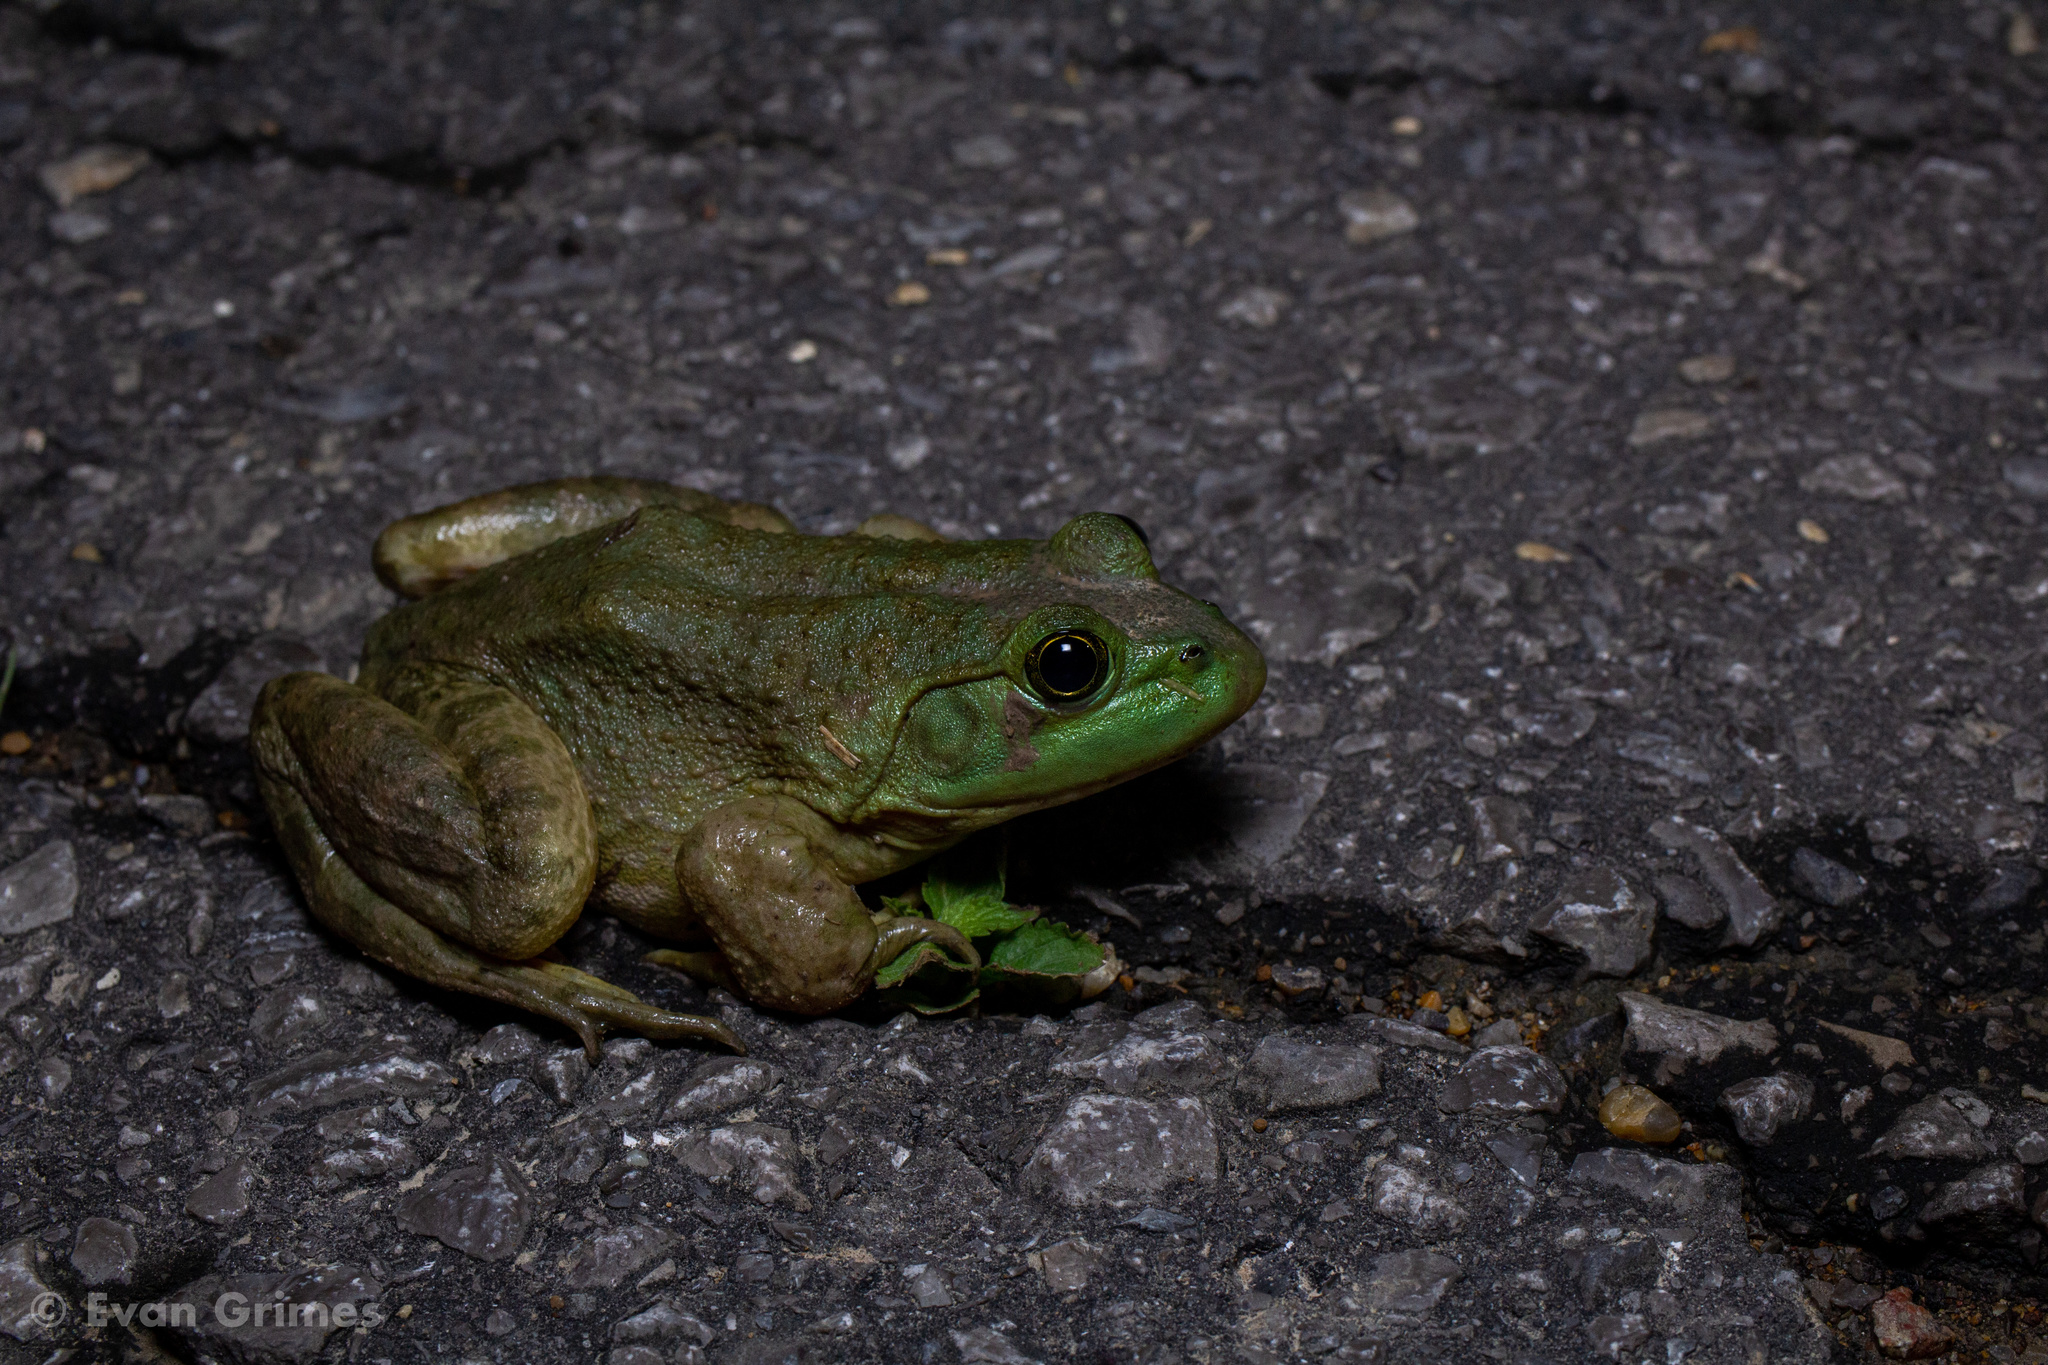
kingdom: Animalia
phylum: Chordata
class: Amphibia
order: Anura
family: Ranidae
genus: Lithobates
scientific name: Lithobates catesbeianus
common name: American bullfrog
